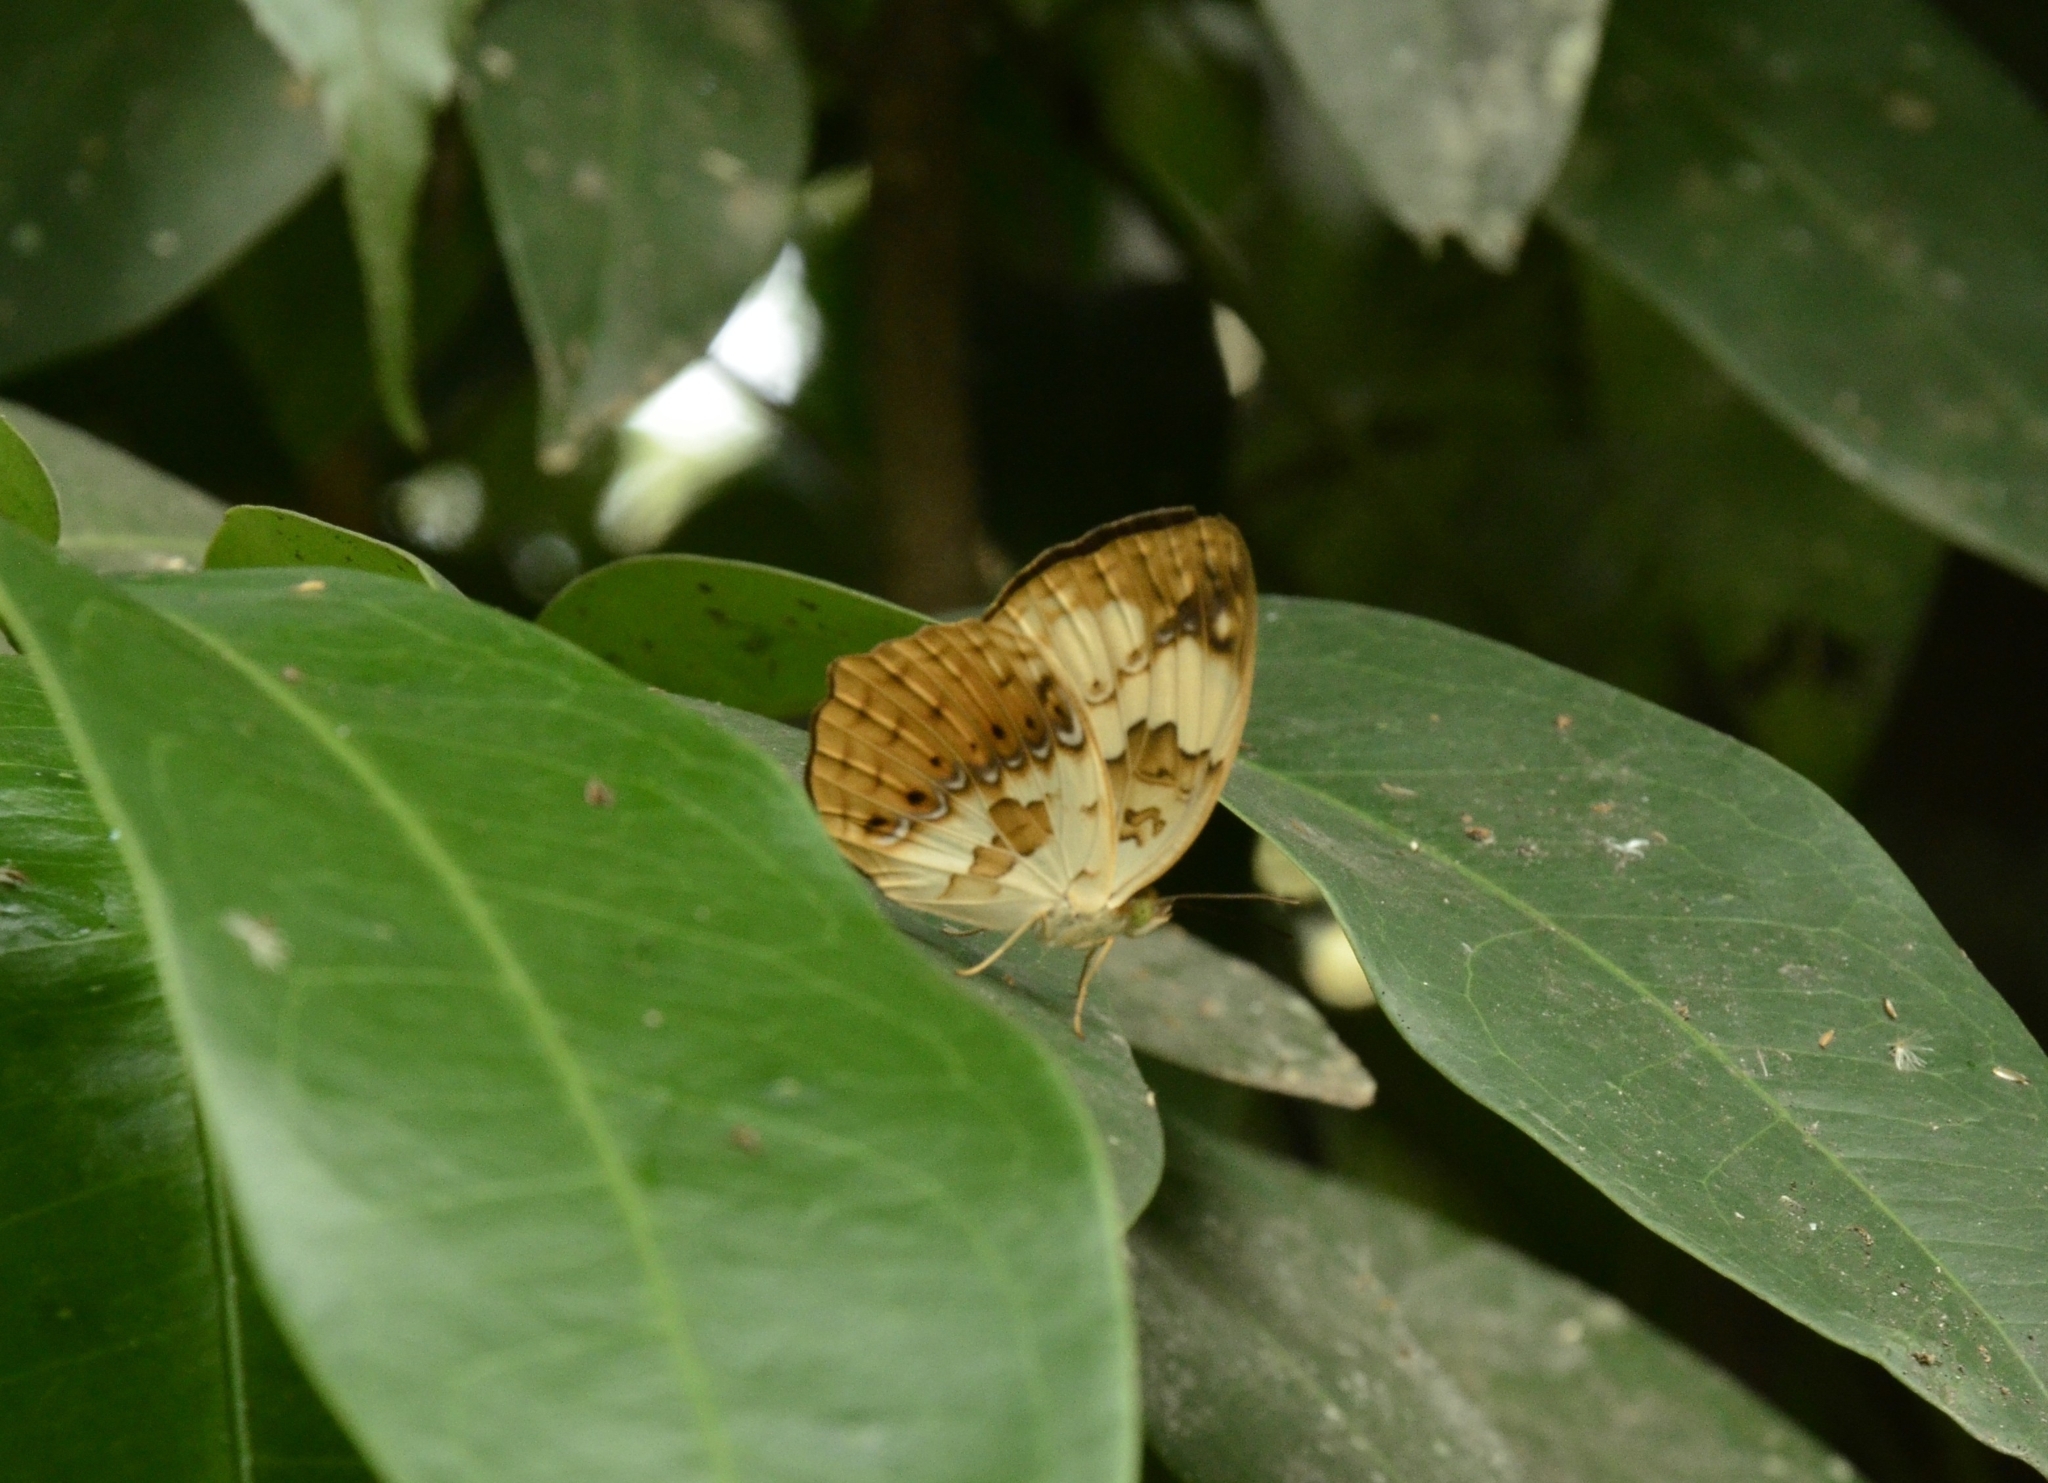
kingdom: Animalia
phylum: Arthropoda
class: Insecta
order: Lepidoptera
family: Nymphalidae
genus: Cupha
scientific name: Cupha erymanthis
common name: Rustic
